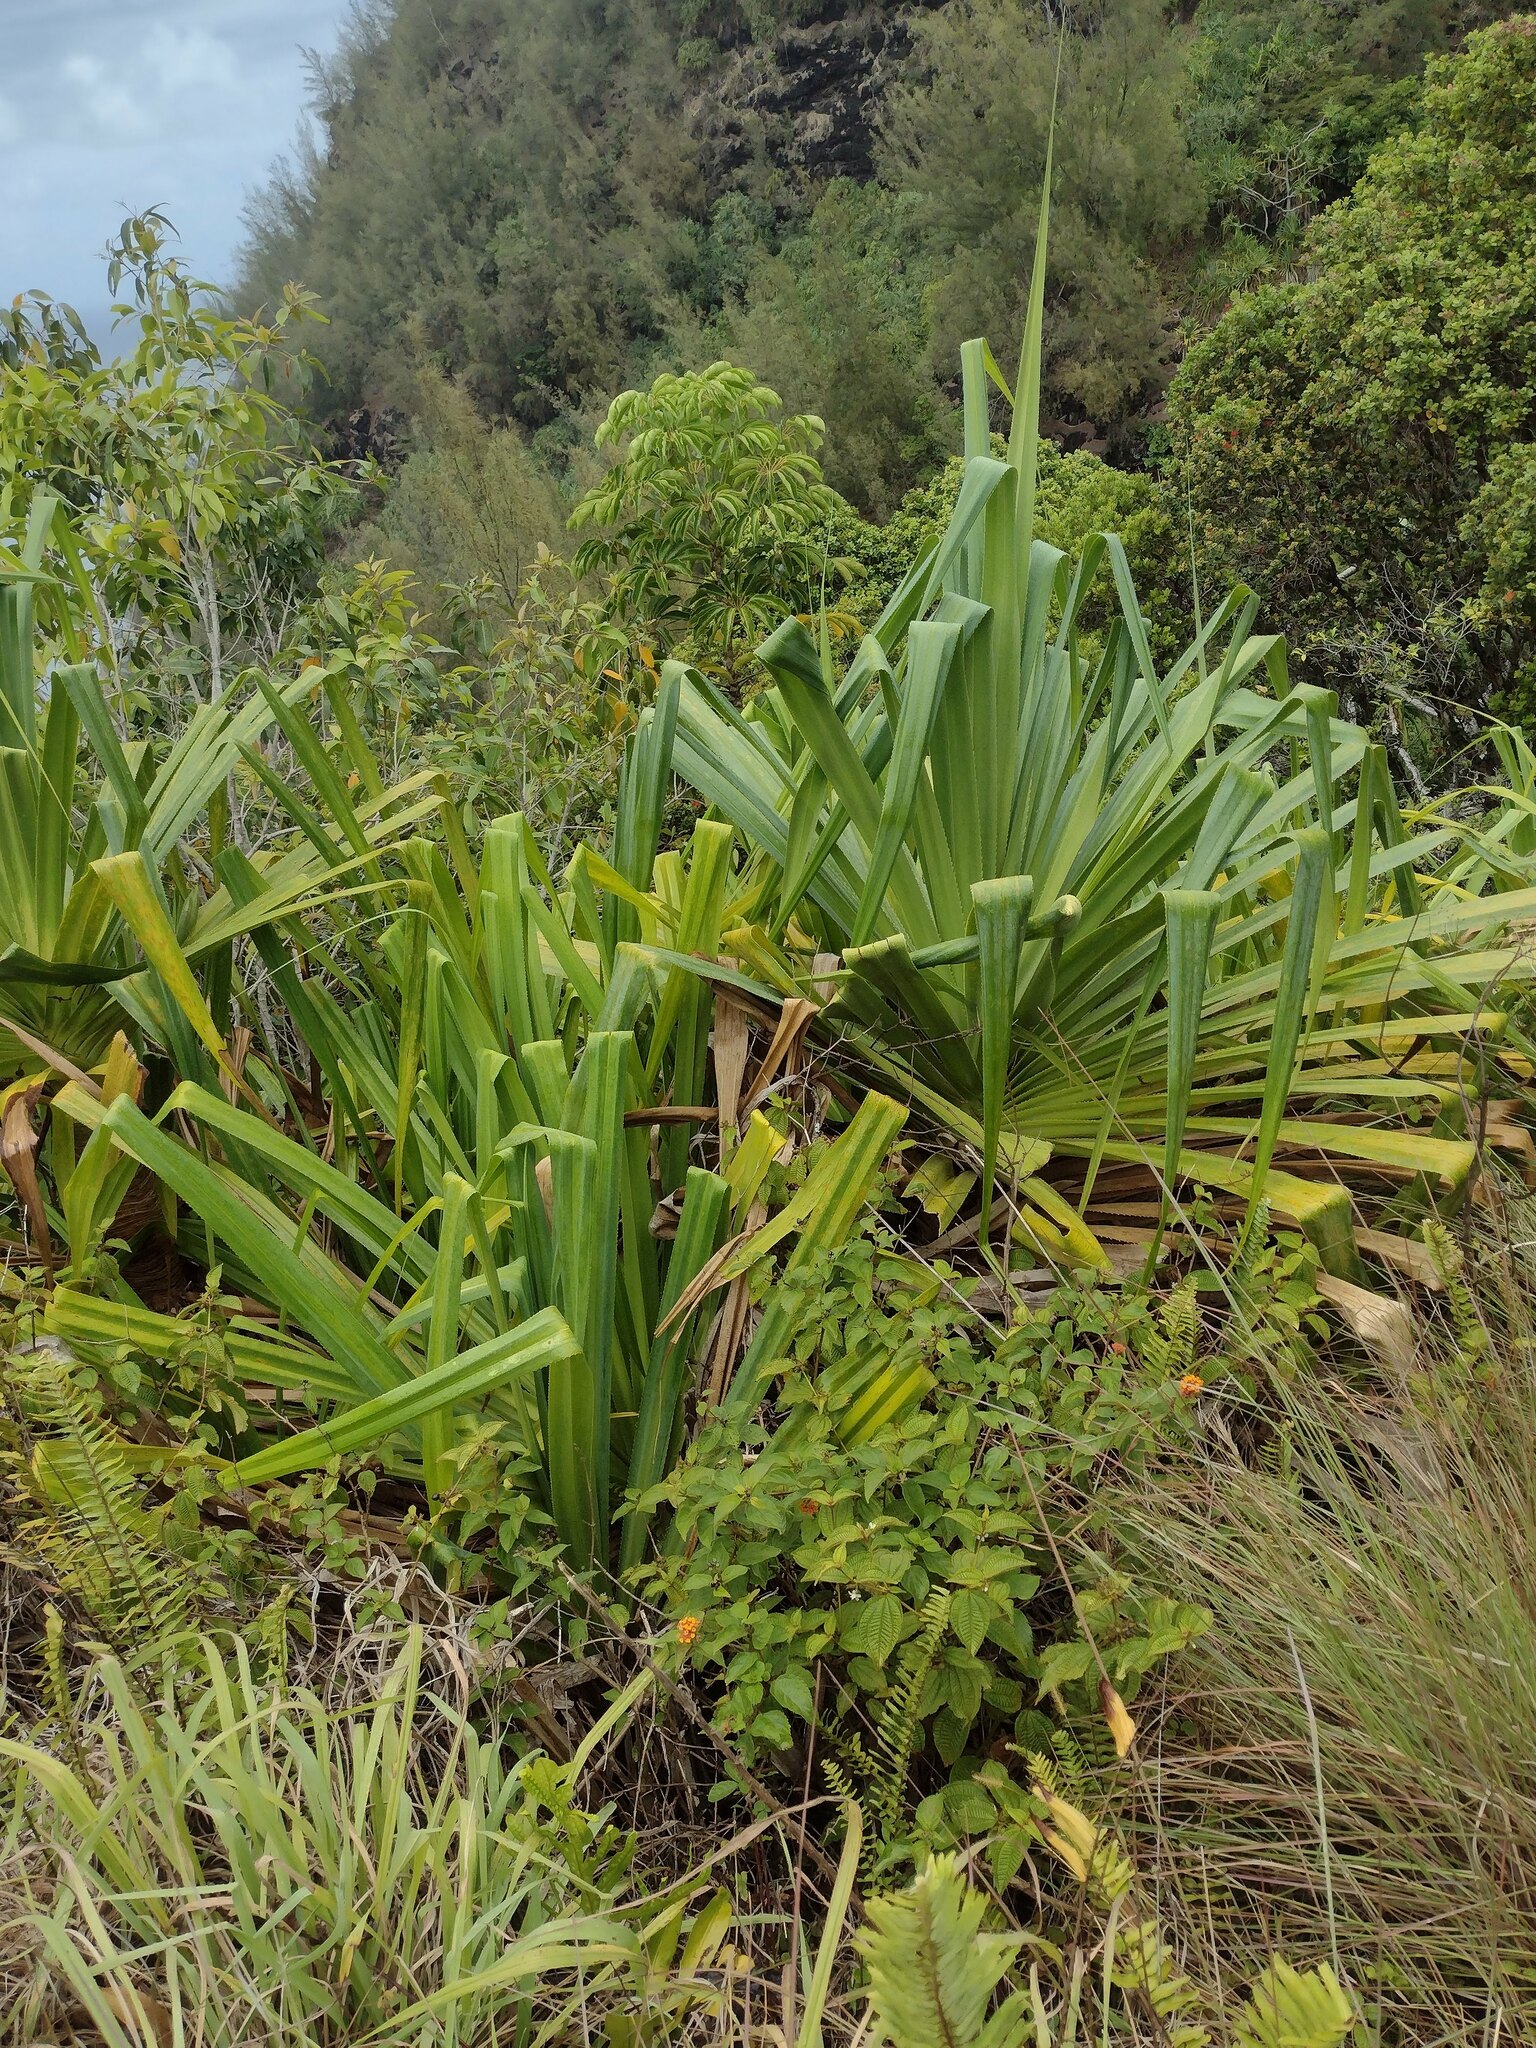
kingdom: Plantae
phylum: Tracheophyta
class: Liliopsida
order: Pandanales
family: Pandanaceae
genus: Pandanus
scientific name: Pandanus tectorius
